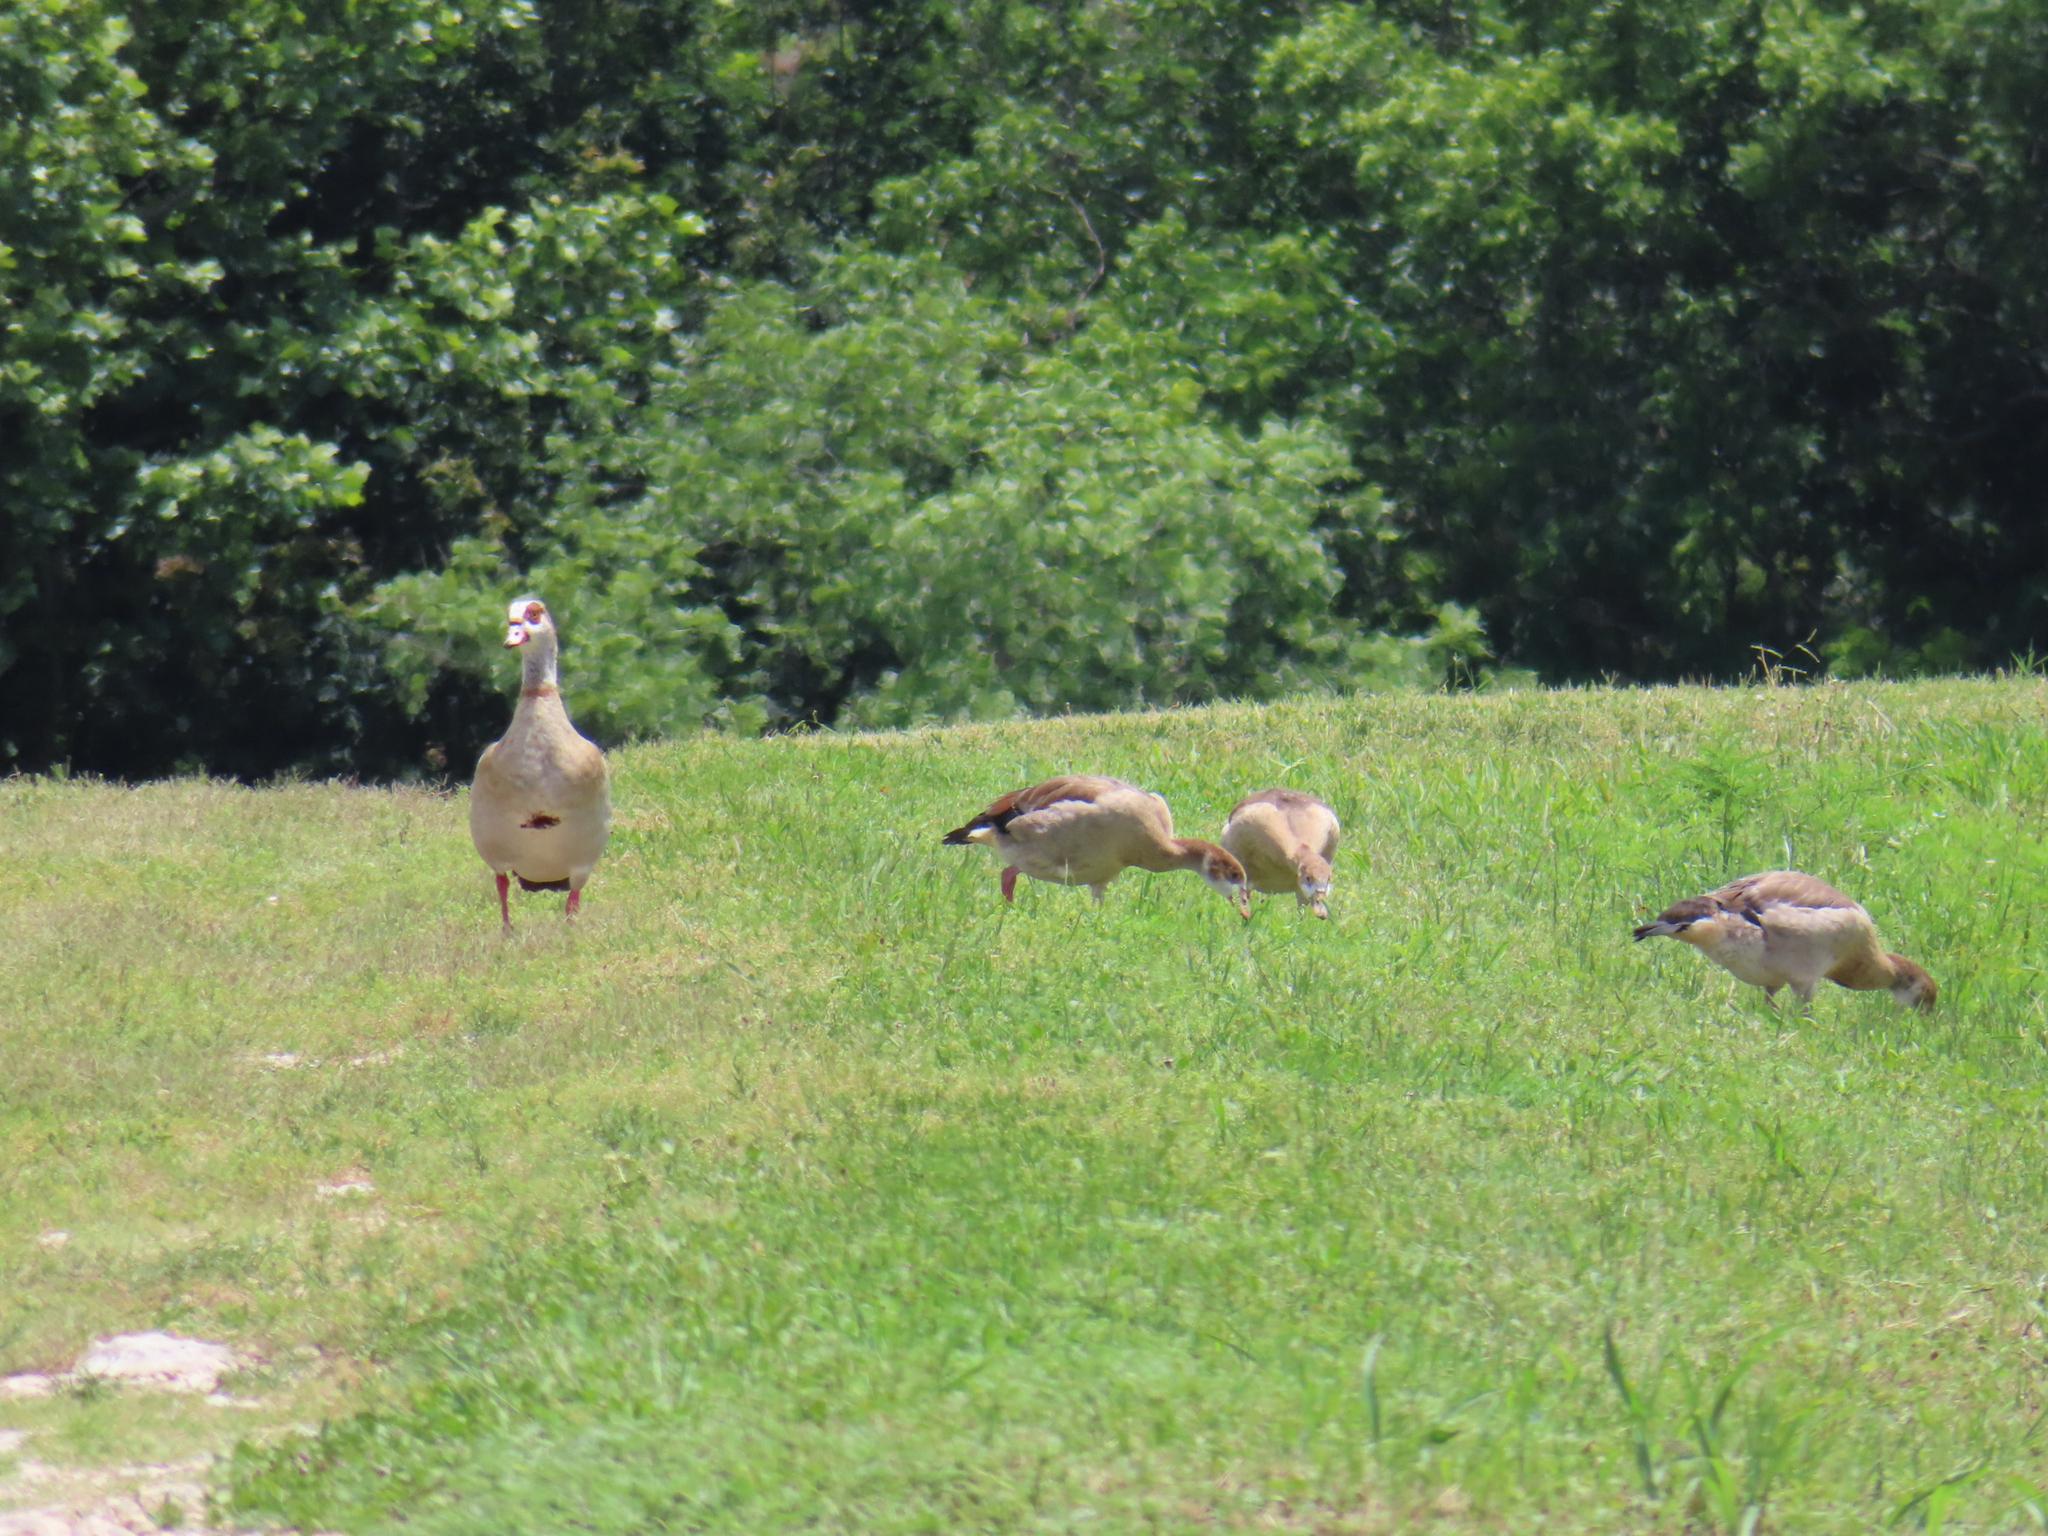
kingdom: Animalia
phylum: Chordata
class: Aves
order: Anseriformes
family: Anatidae
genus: Alopochen
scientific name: Alopochen aegyptiaca
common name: Egyptian goose
